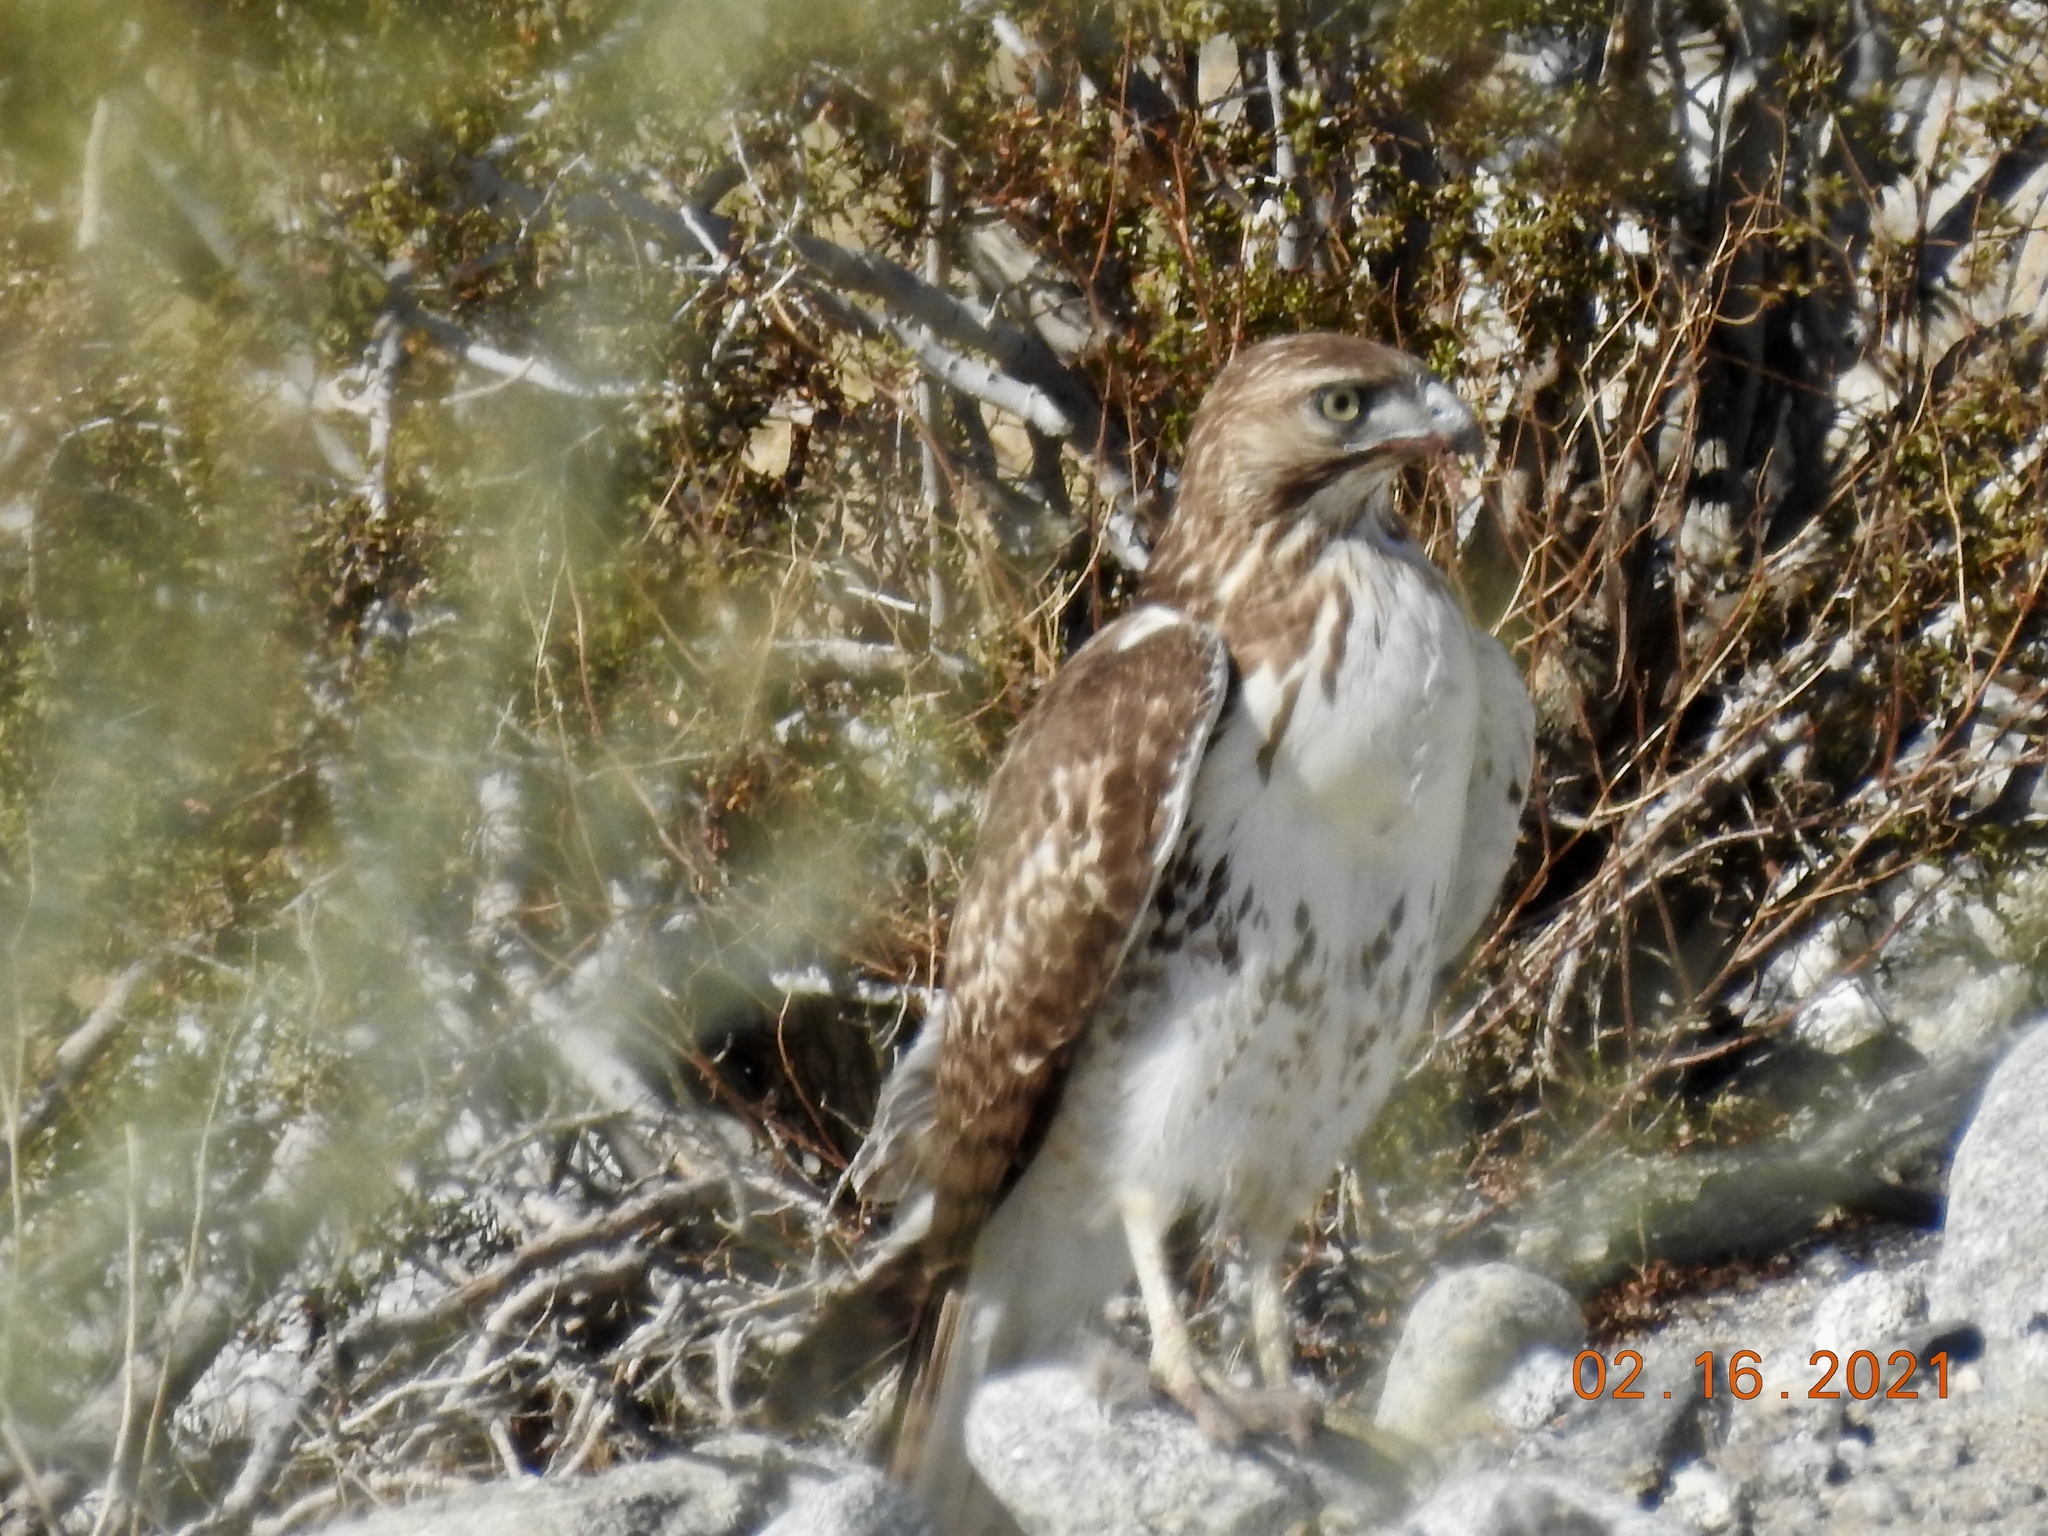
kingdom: Animalia
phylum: Chordata
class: Aves
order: Accipitriformes
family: Accipitridae
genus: Buteo
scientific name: Buteo jamaicensis
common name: Red-tailed hawk
